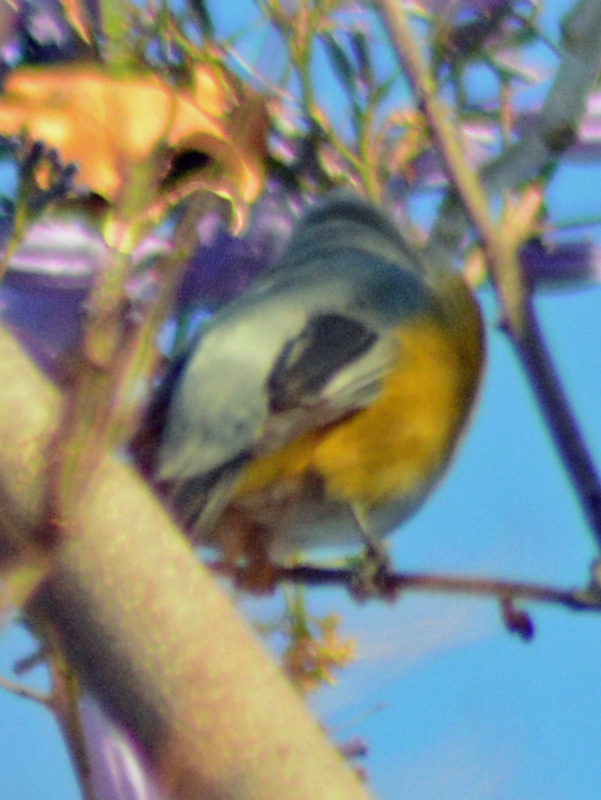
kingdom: Animalia
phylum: Chordata
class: Aves
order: Passeriformes
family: Ptilogonatidae
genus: Ptilogonys
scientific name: Ptilogonys cinereus
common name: Gray silky-flycatcher
